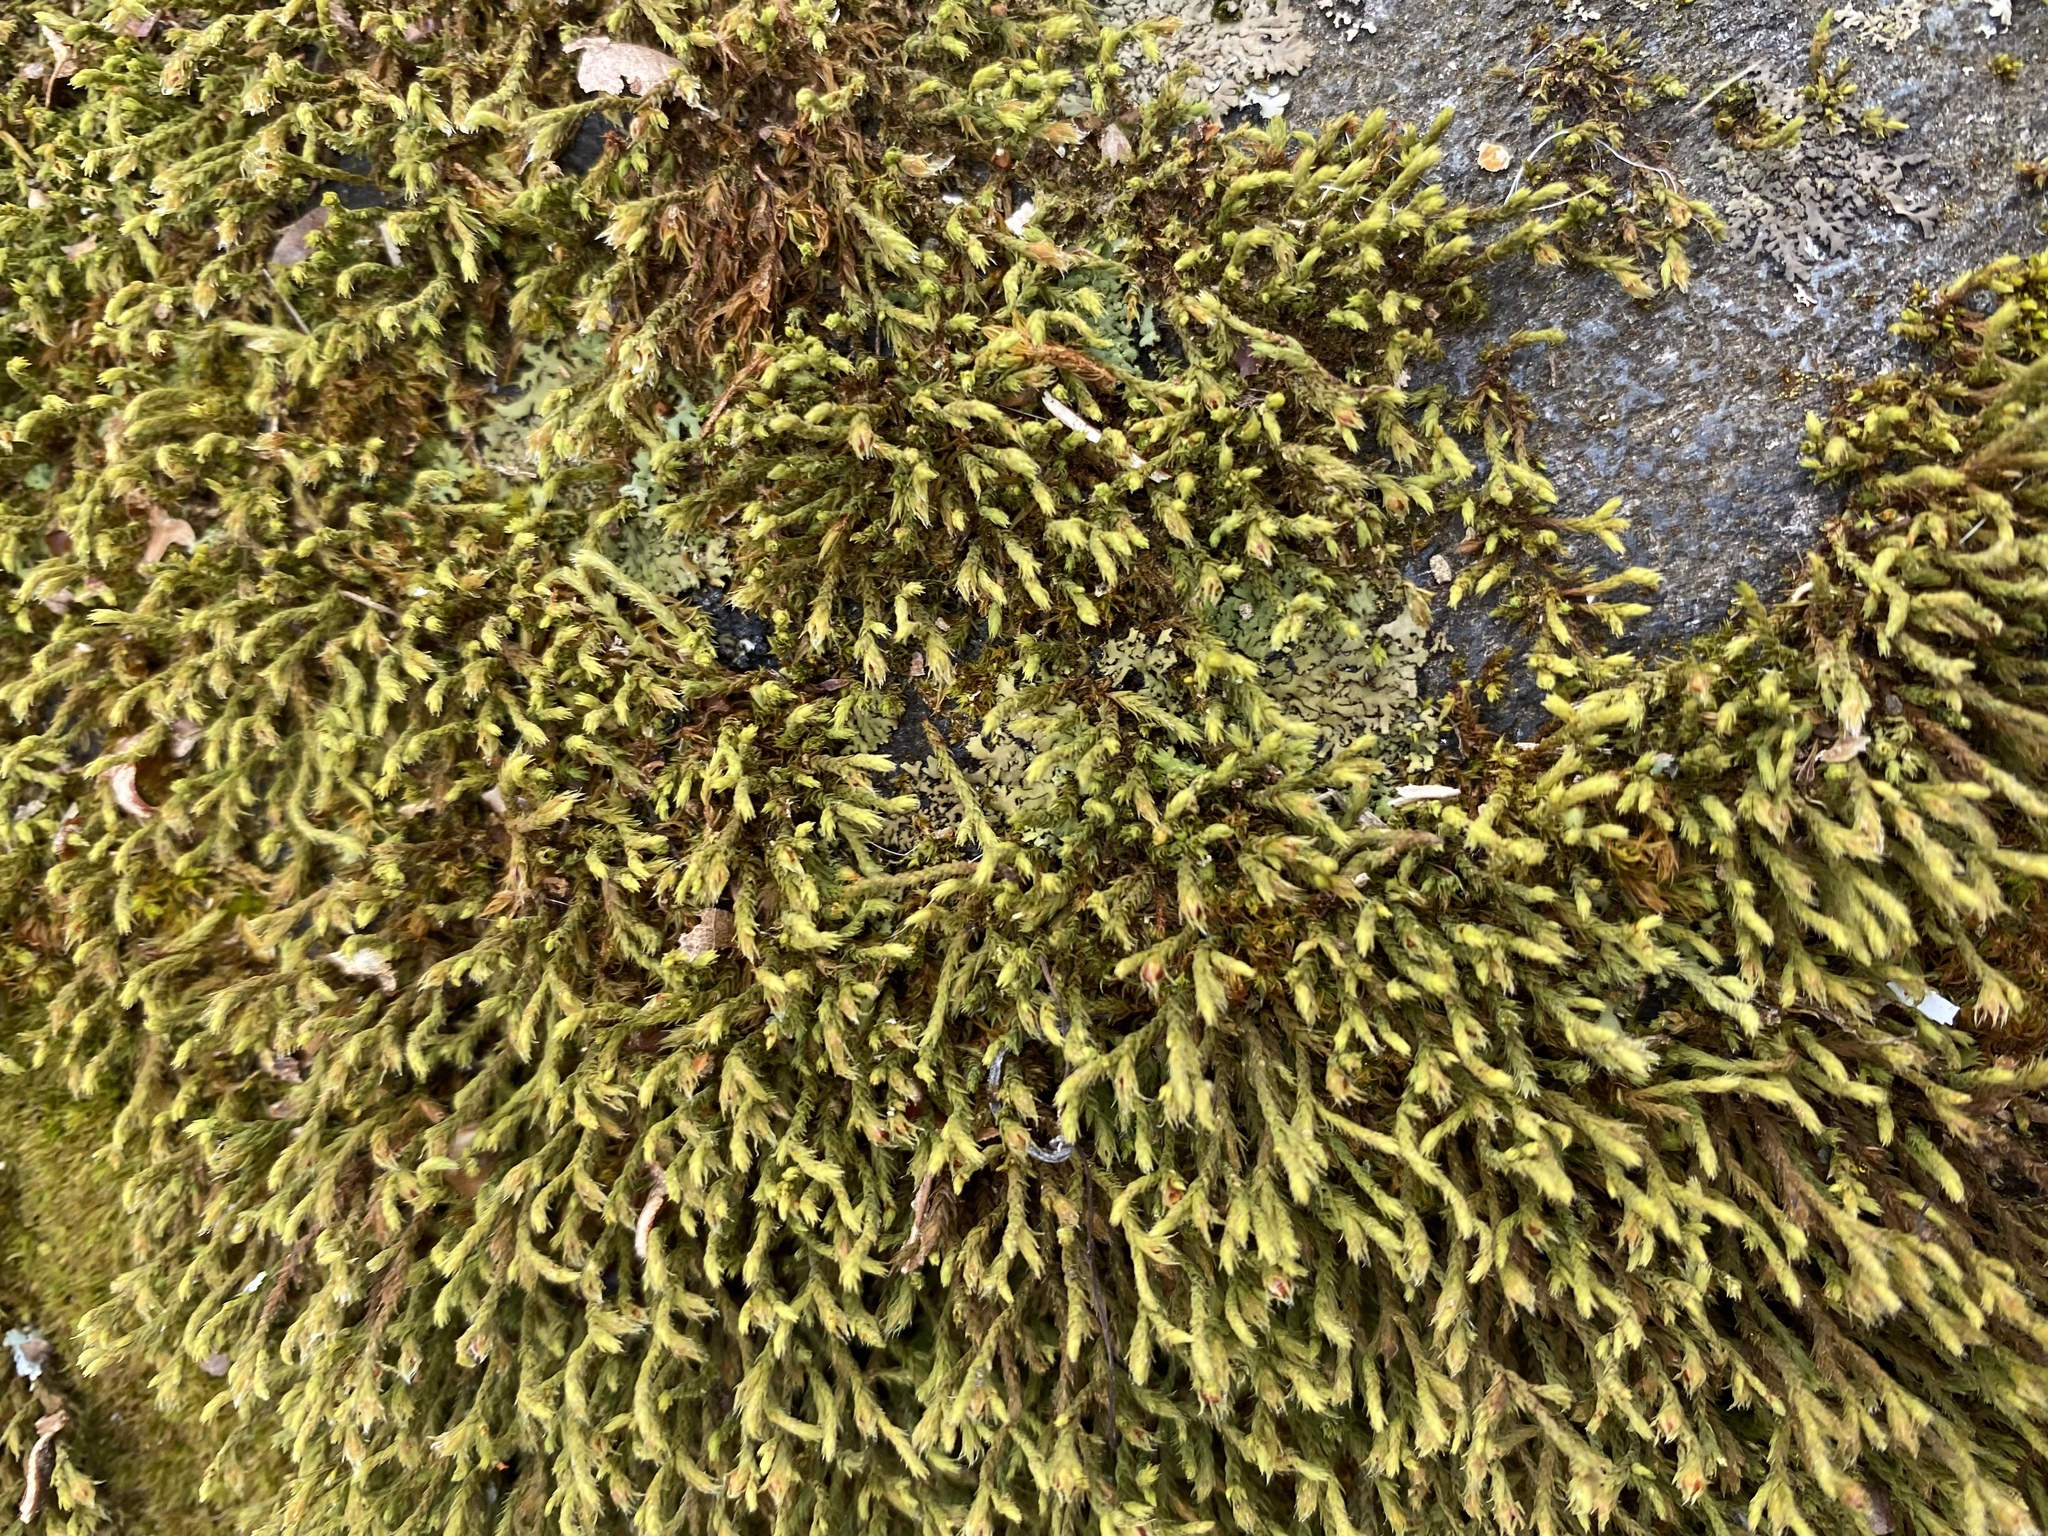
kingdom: Plantae
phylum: Bryophyta
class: Bryopsida
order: Hedwigiales
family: Hedwigiaceae
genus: Hedwigia
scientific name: Hedwigia ciliata
